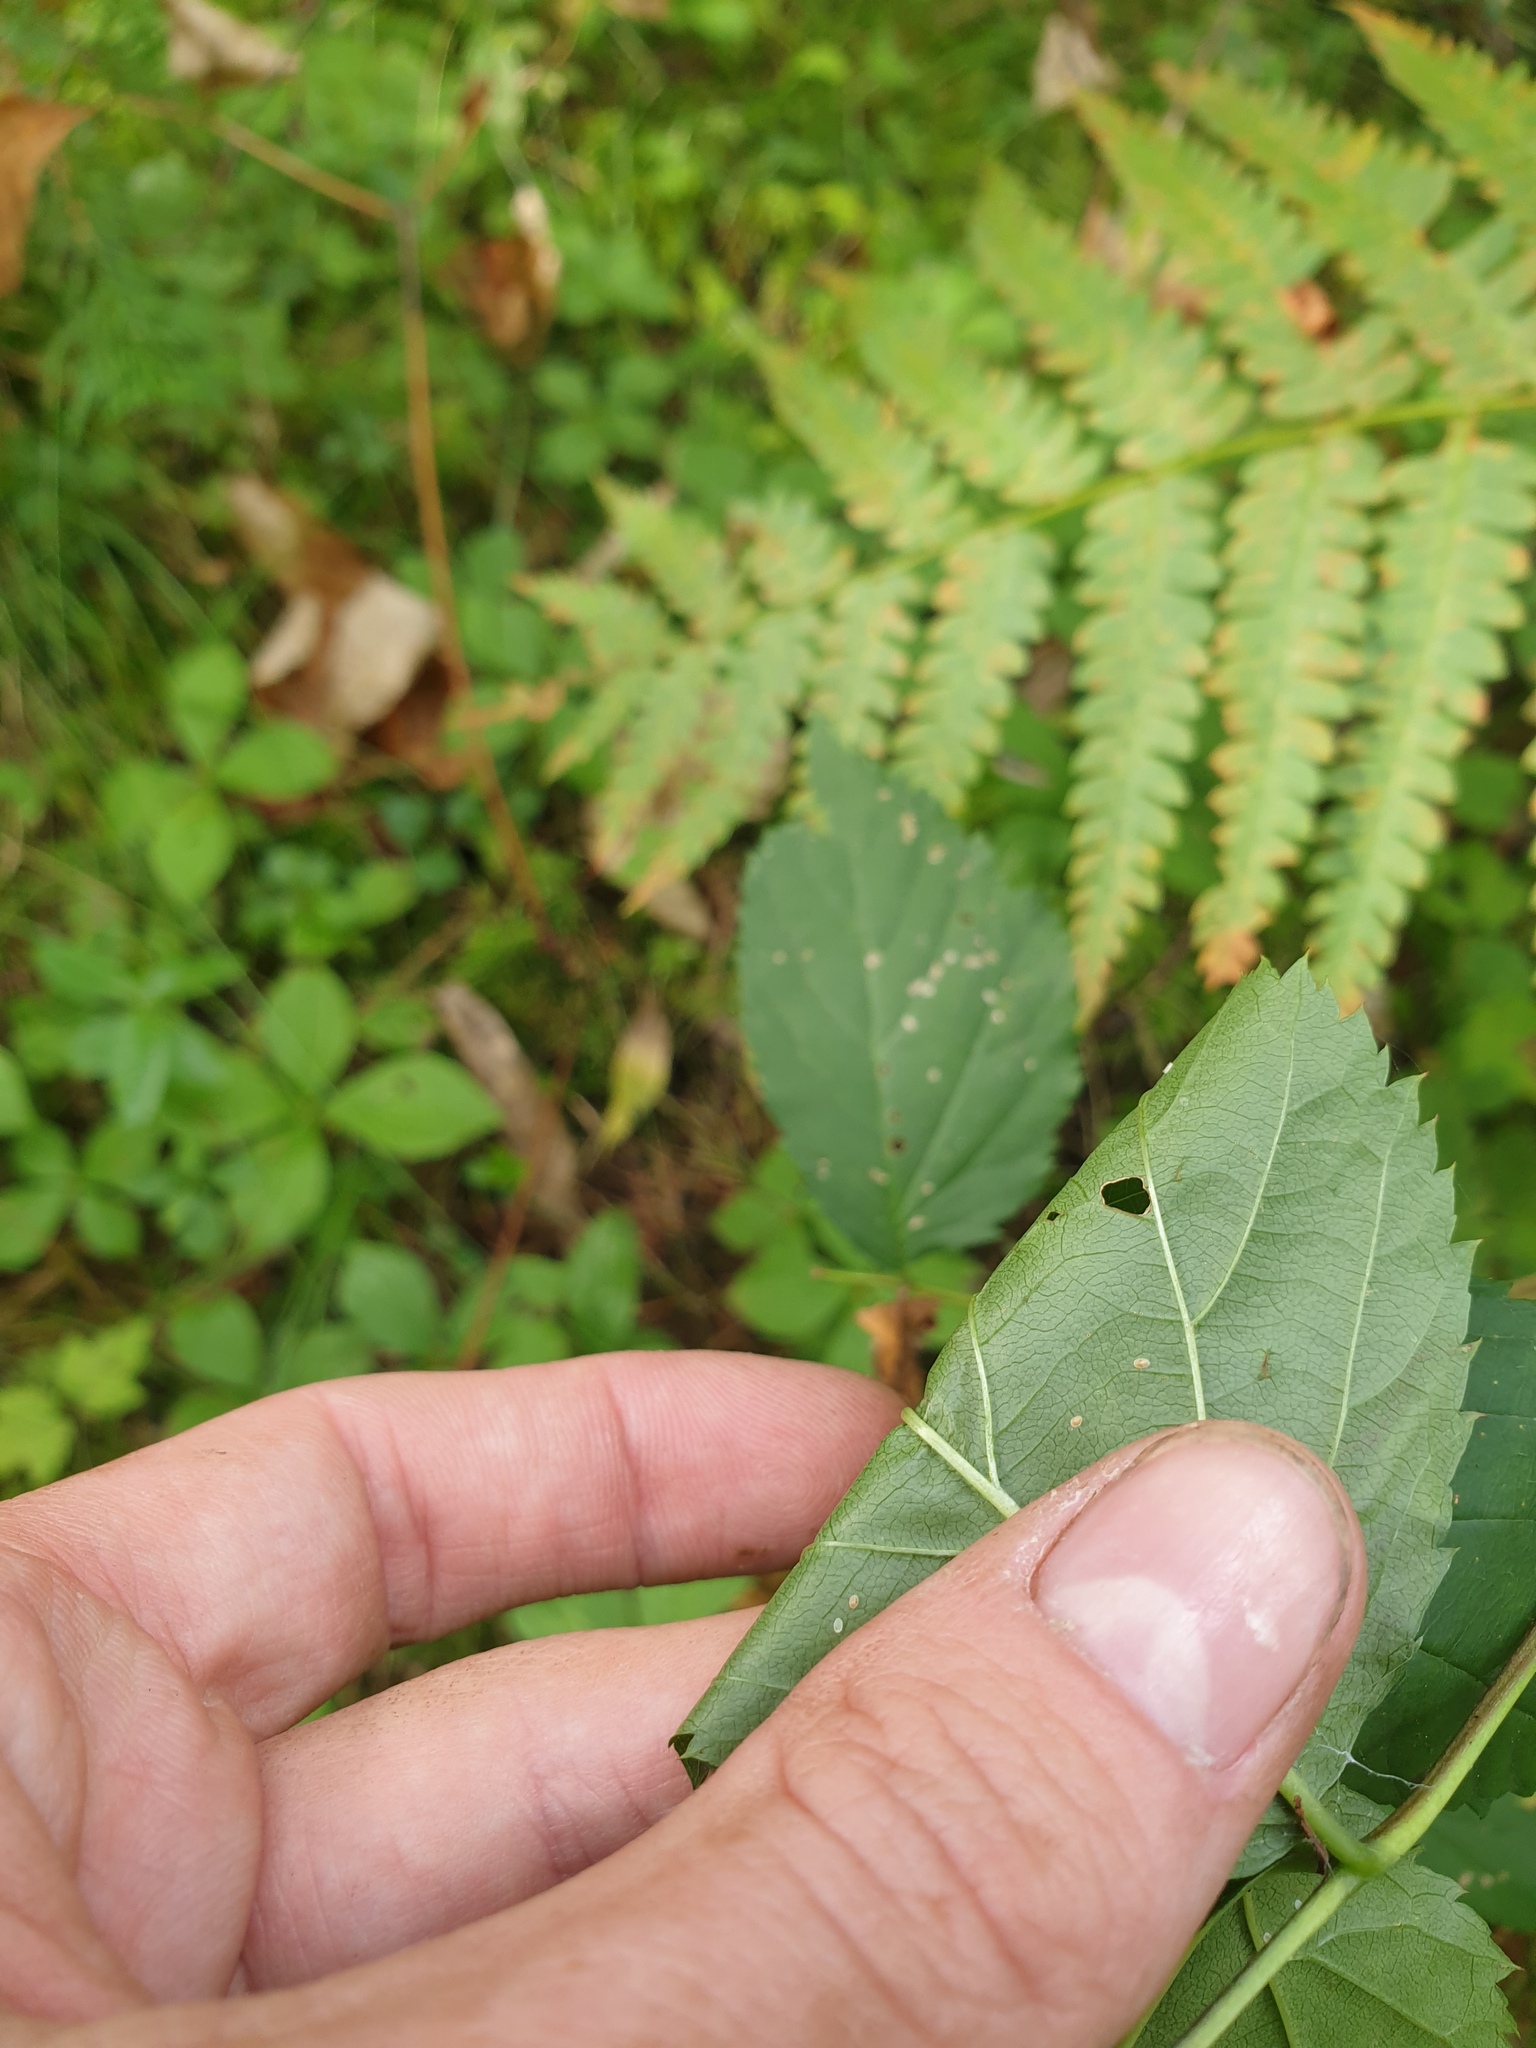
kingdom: Plantae
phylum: Tracheophyta
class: Magnoliopsida
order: Rosales
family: Rosaceae
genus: Rubus
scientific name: Rubus canadensis
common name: Smooth blackberry
